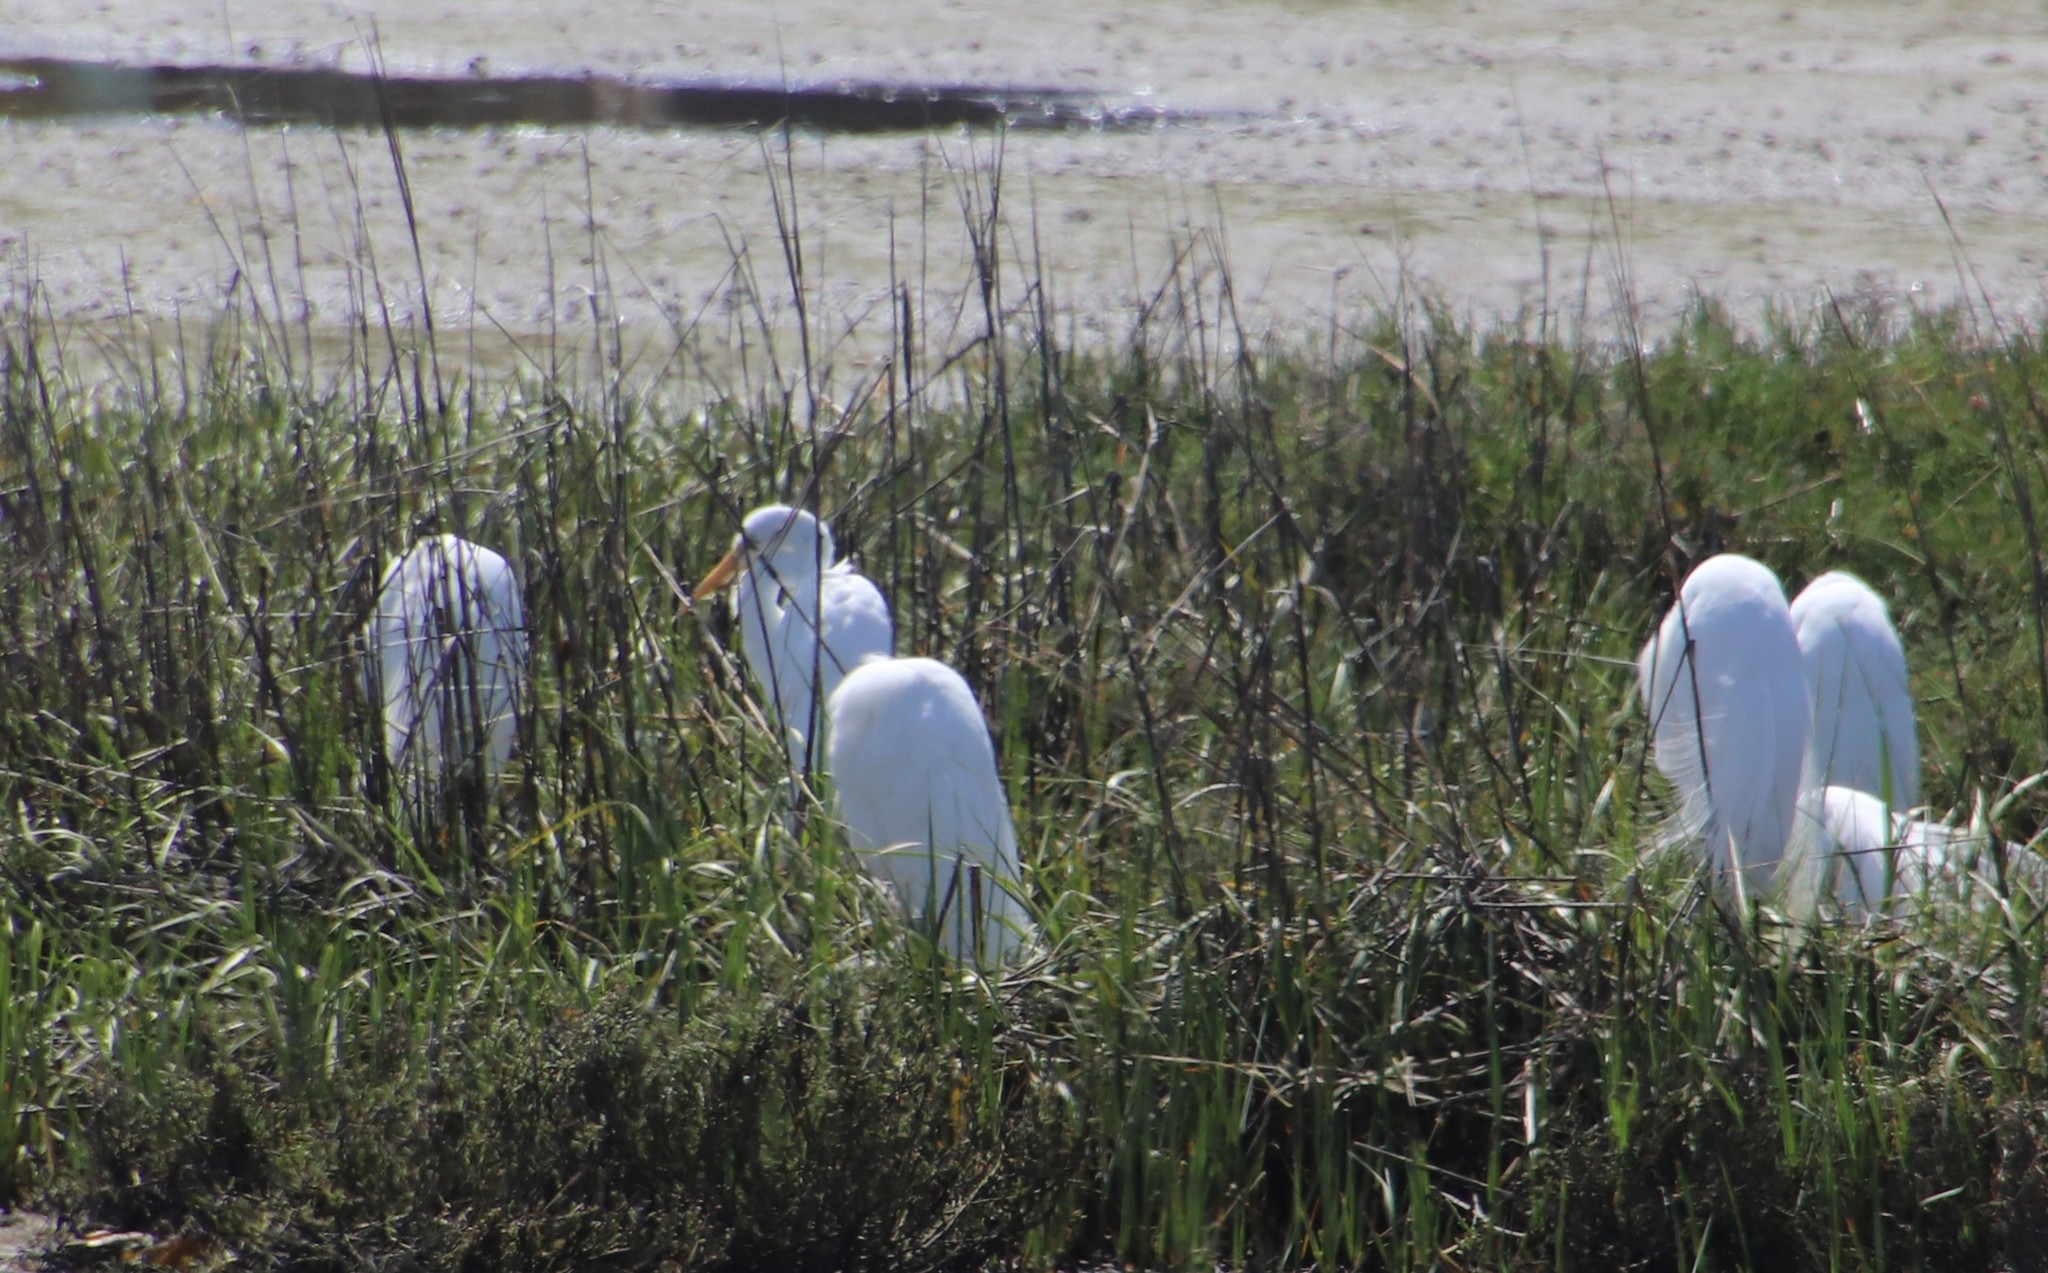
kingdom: Animalia
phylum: Chordata
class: Aves
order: Pelecaniformes
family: Ardeidae
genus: Ardea
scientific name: Ardea alba
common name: Great egret
